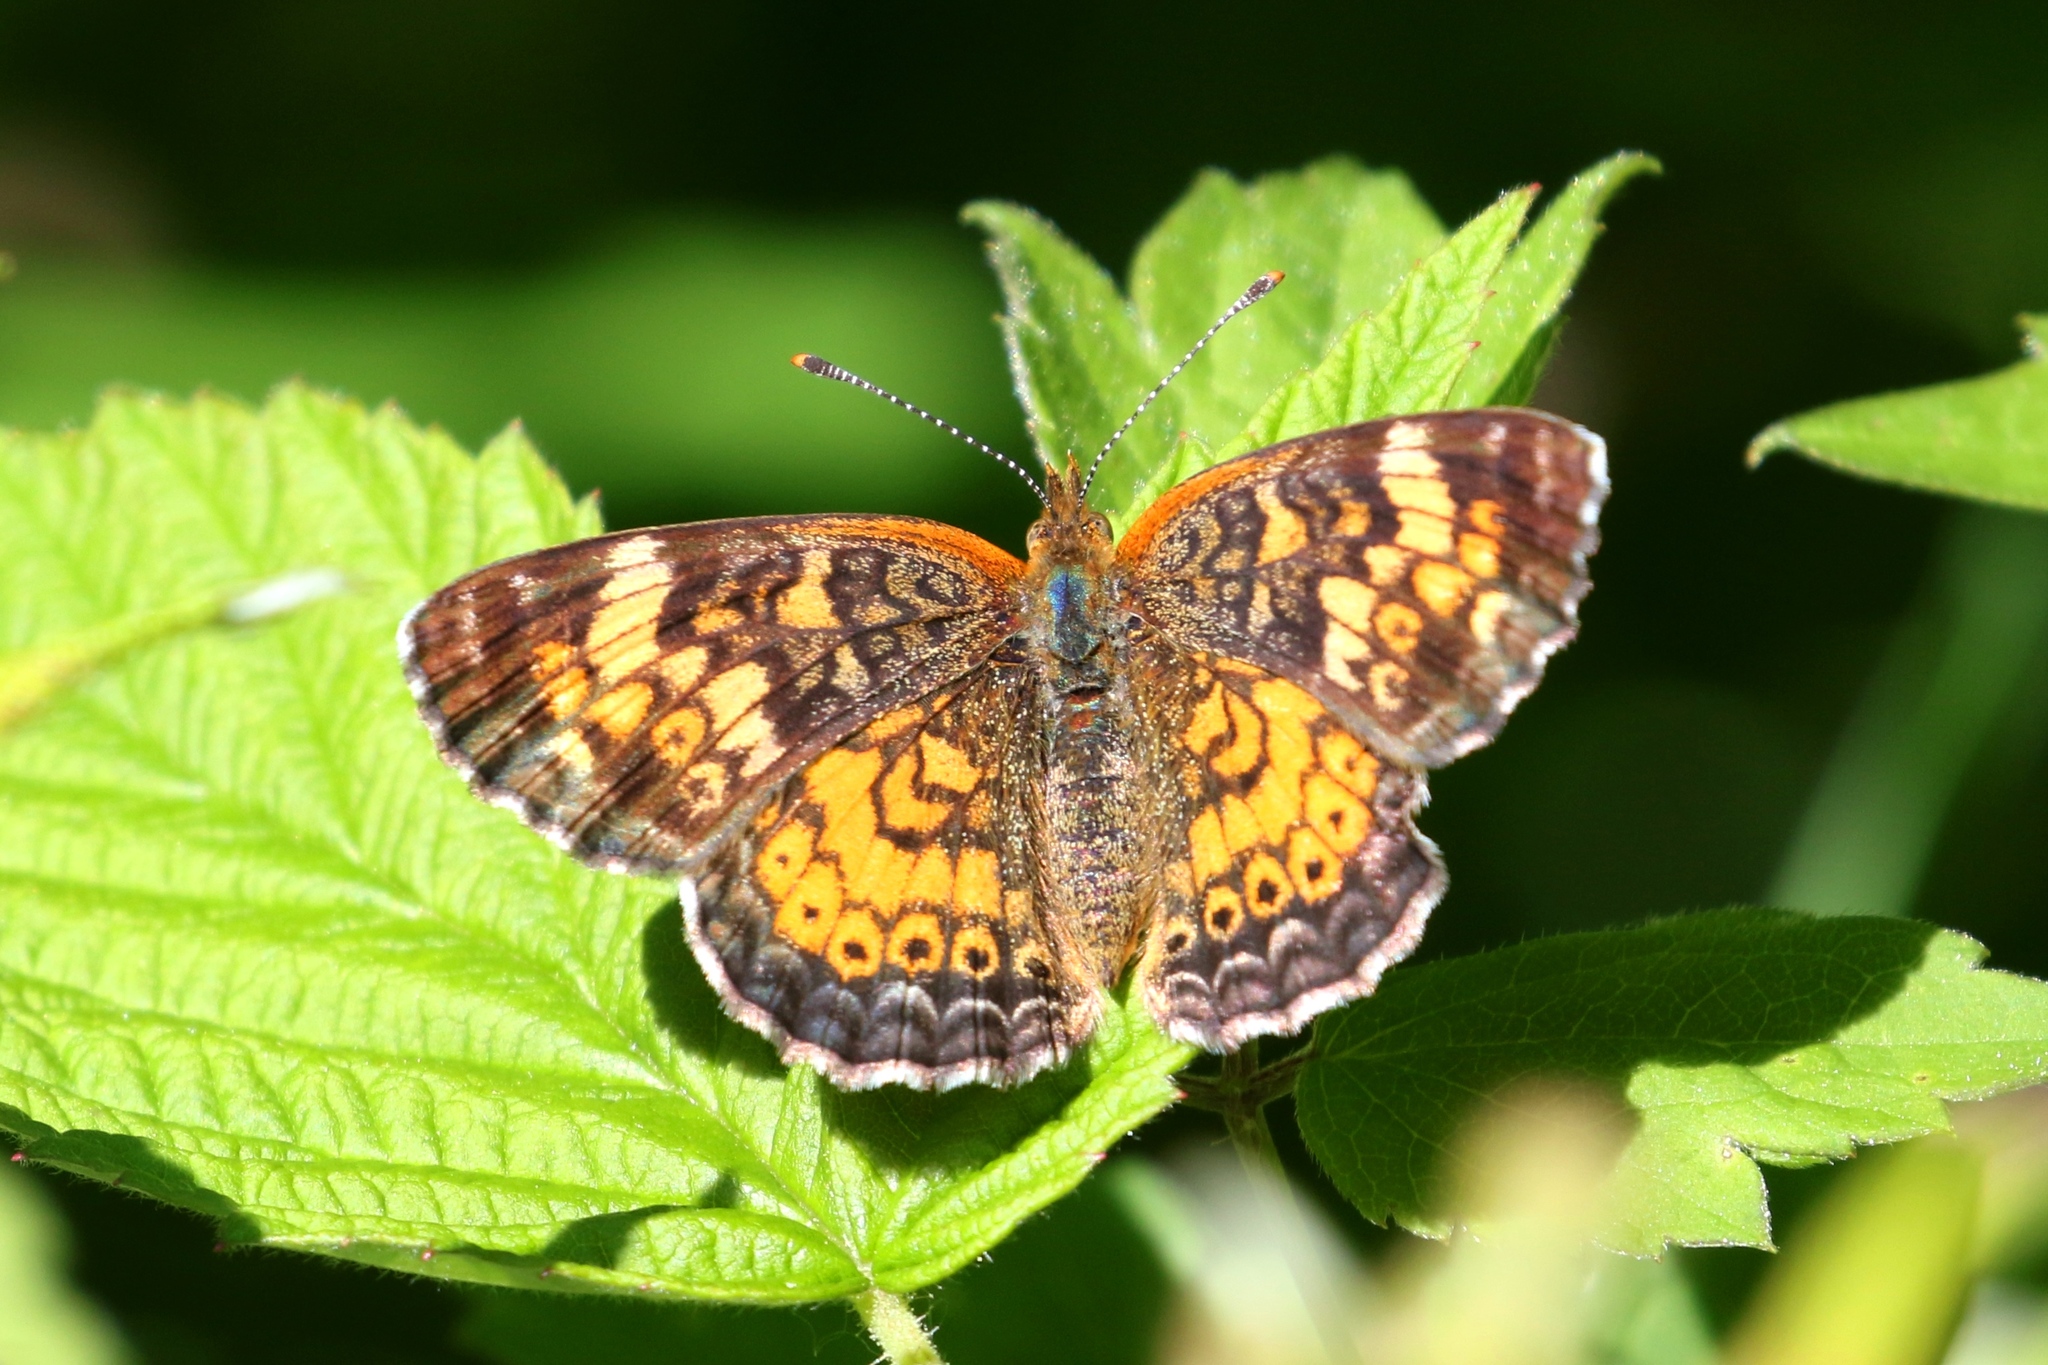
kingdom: Animalia
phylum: Arthropoda
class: Insecta
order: Lepidoptera
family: Nymphalidae
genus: Phyciodes
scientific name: Phyciodes tharos
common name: Pearl crescent
